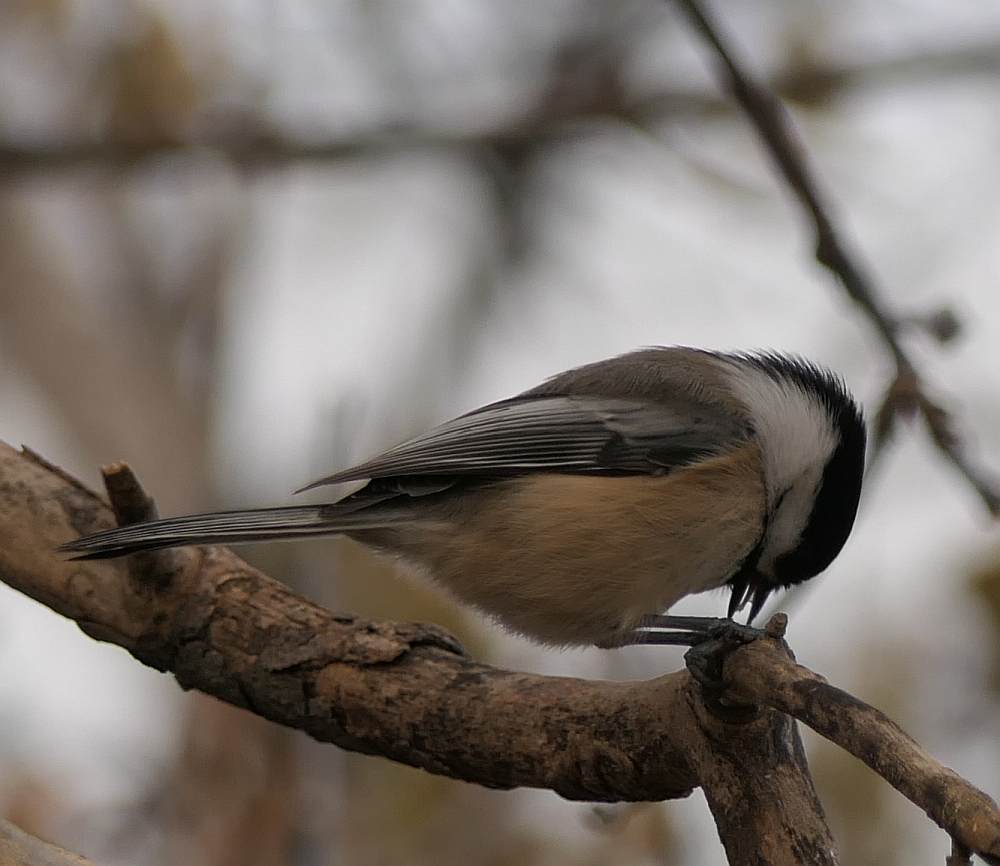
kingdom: Animalia
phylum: Chordata
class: Aves
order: Passeriformes
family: Paridae
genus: Poecile
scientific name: Poecile atricapillus
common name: Black-capped chickadee
